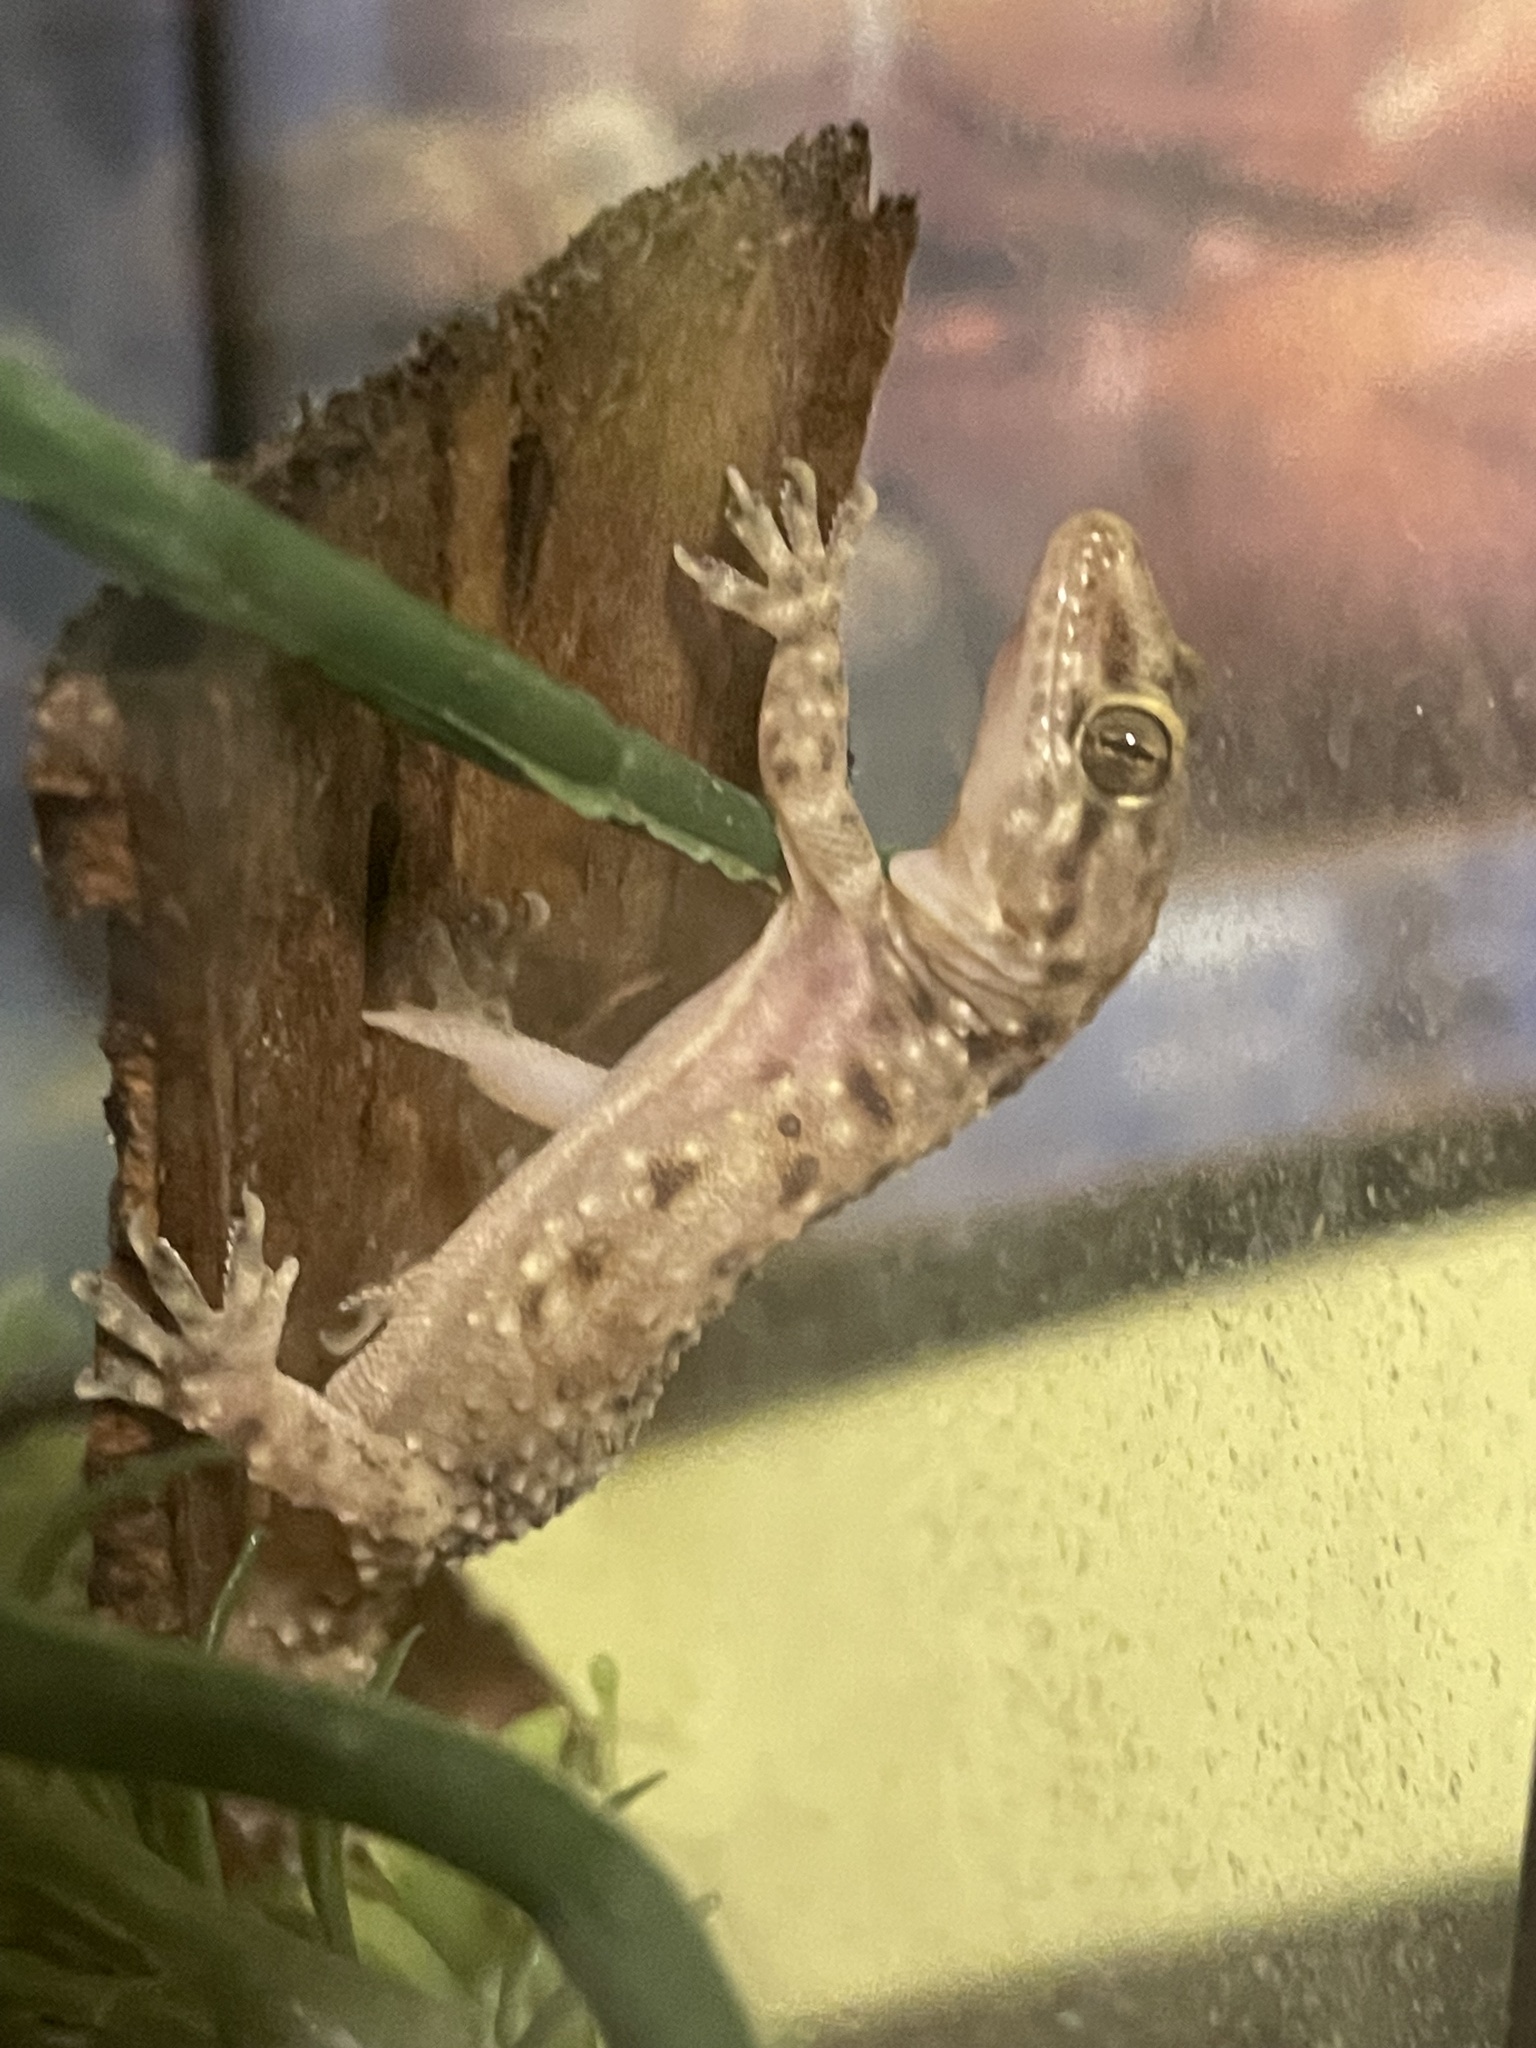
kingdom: Animalia
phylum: Chordata
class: Squamata
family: Gekkonidae
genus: Hemidactylus
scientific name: Hemidactylus turcicus
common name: Turkish gecko
